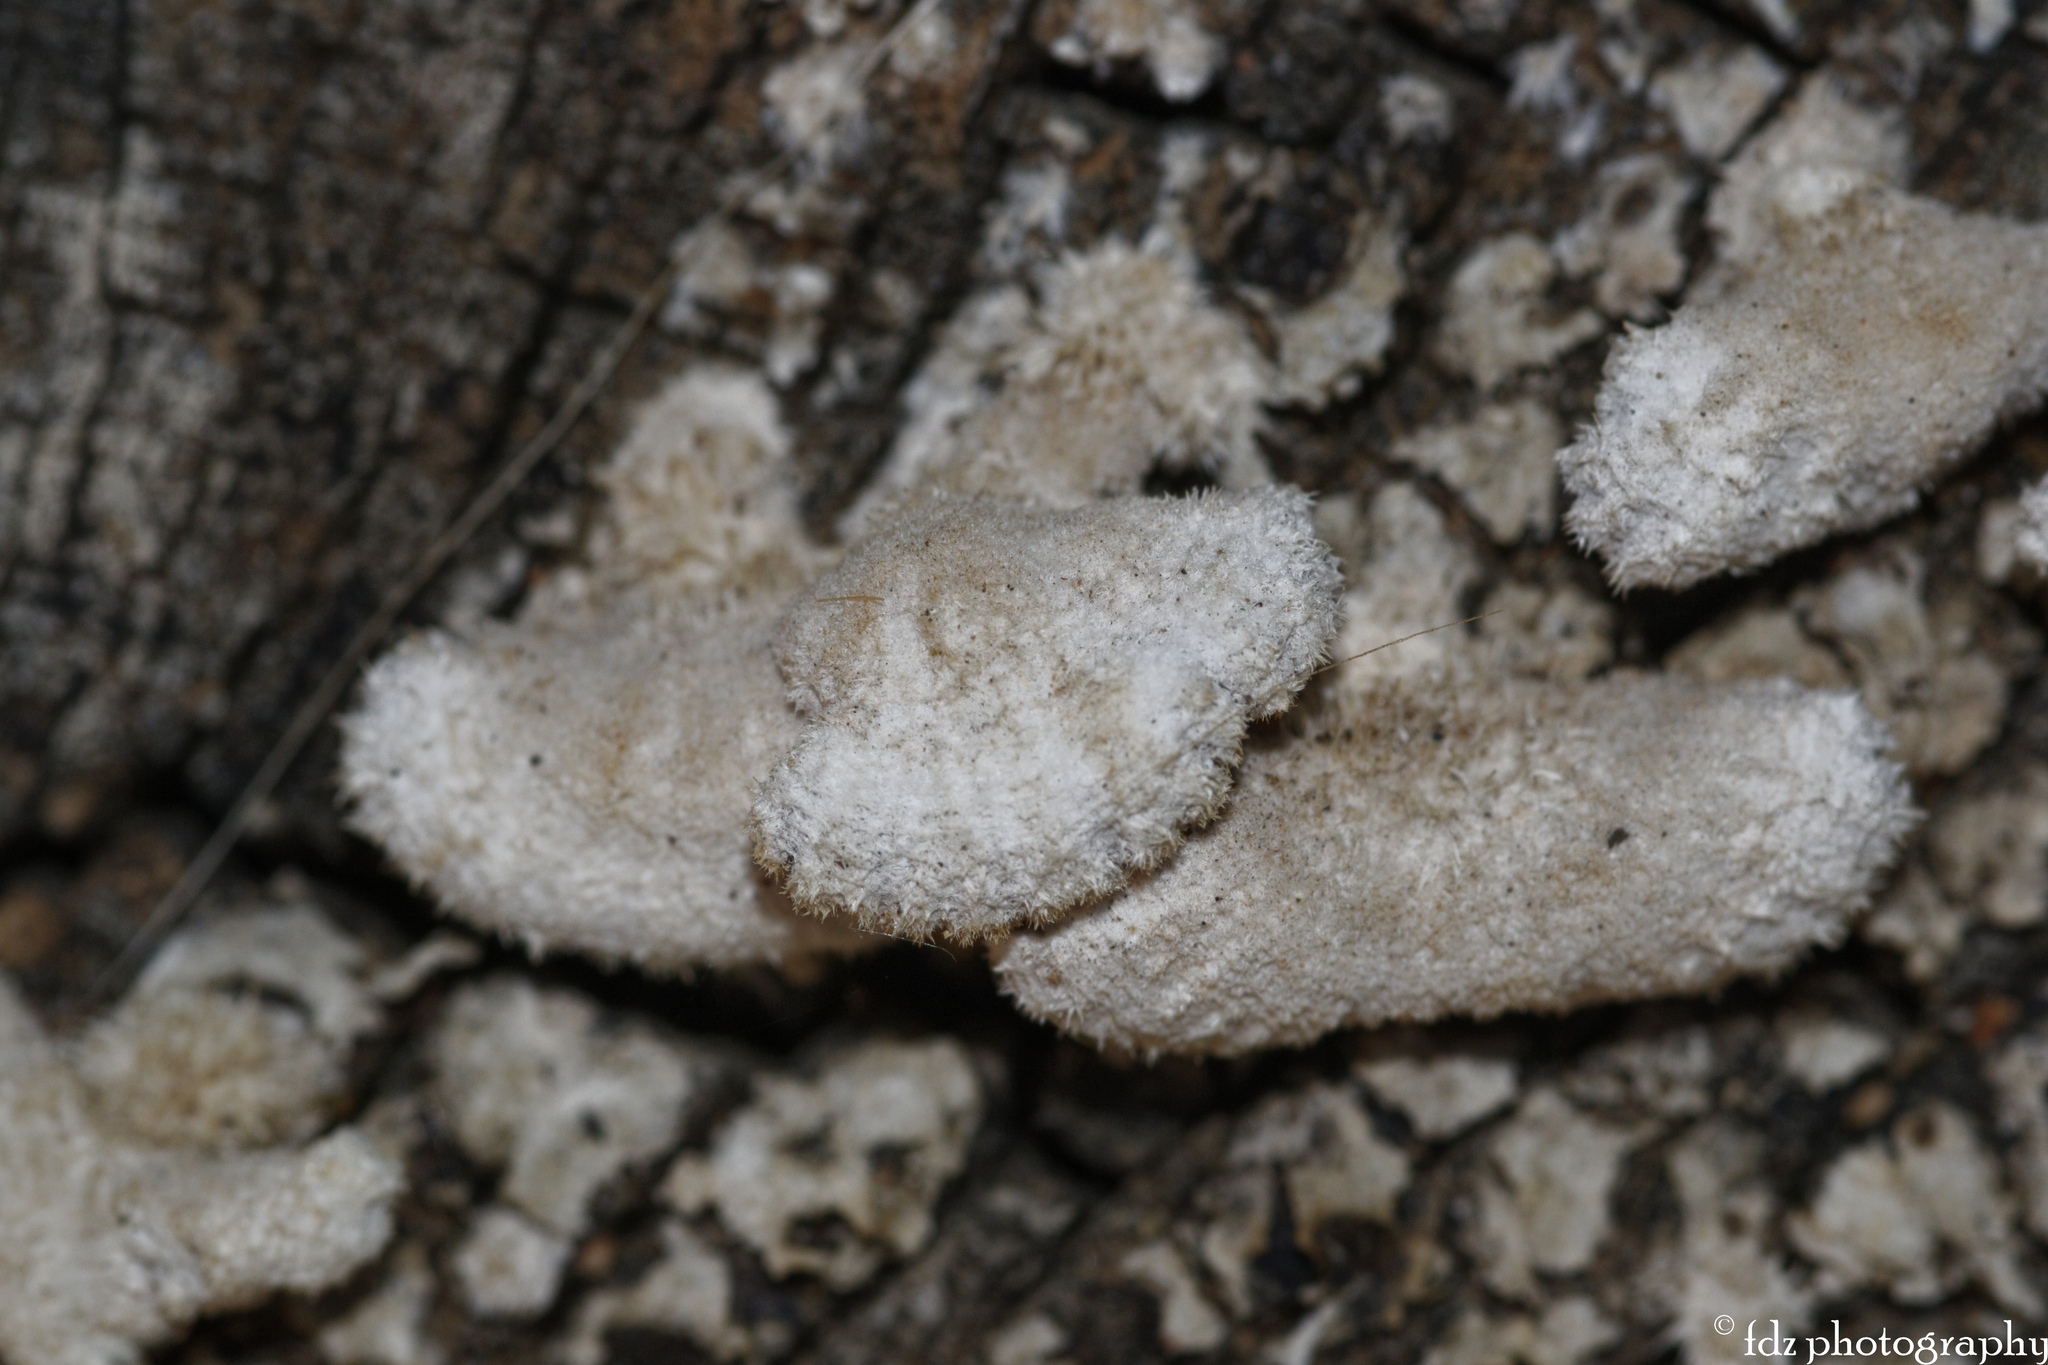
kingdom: Fungi
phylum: Basidiomycota
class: Agaricomycetes
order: Agaricales
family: Schizophyllaceae
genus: Schizophyllum
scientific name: Schizophyllum commune
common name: Common porecrust
